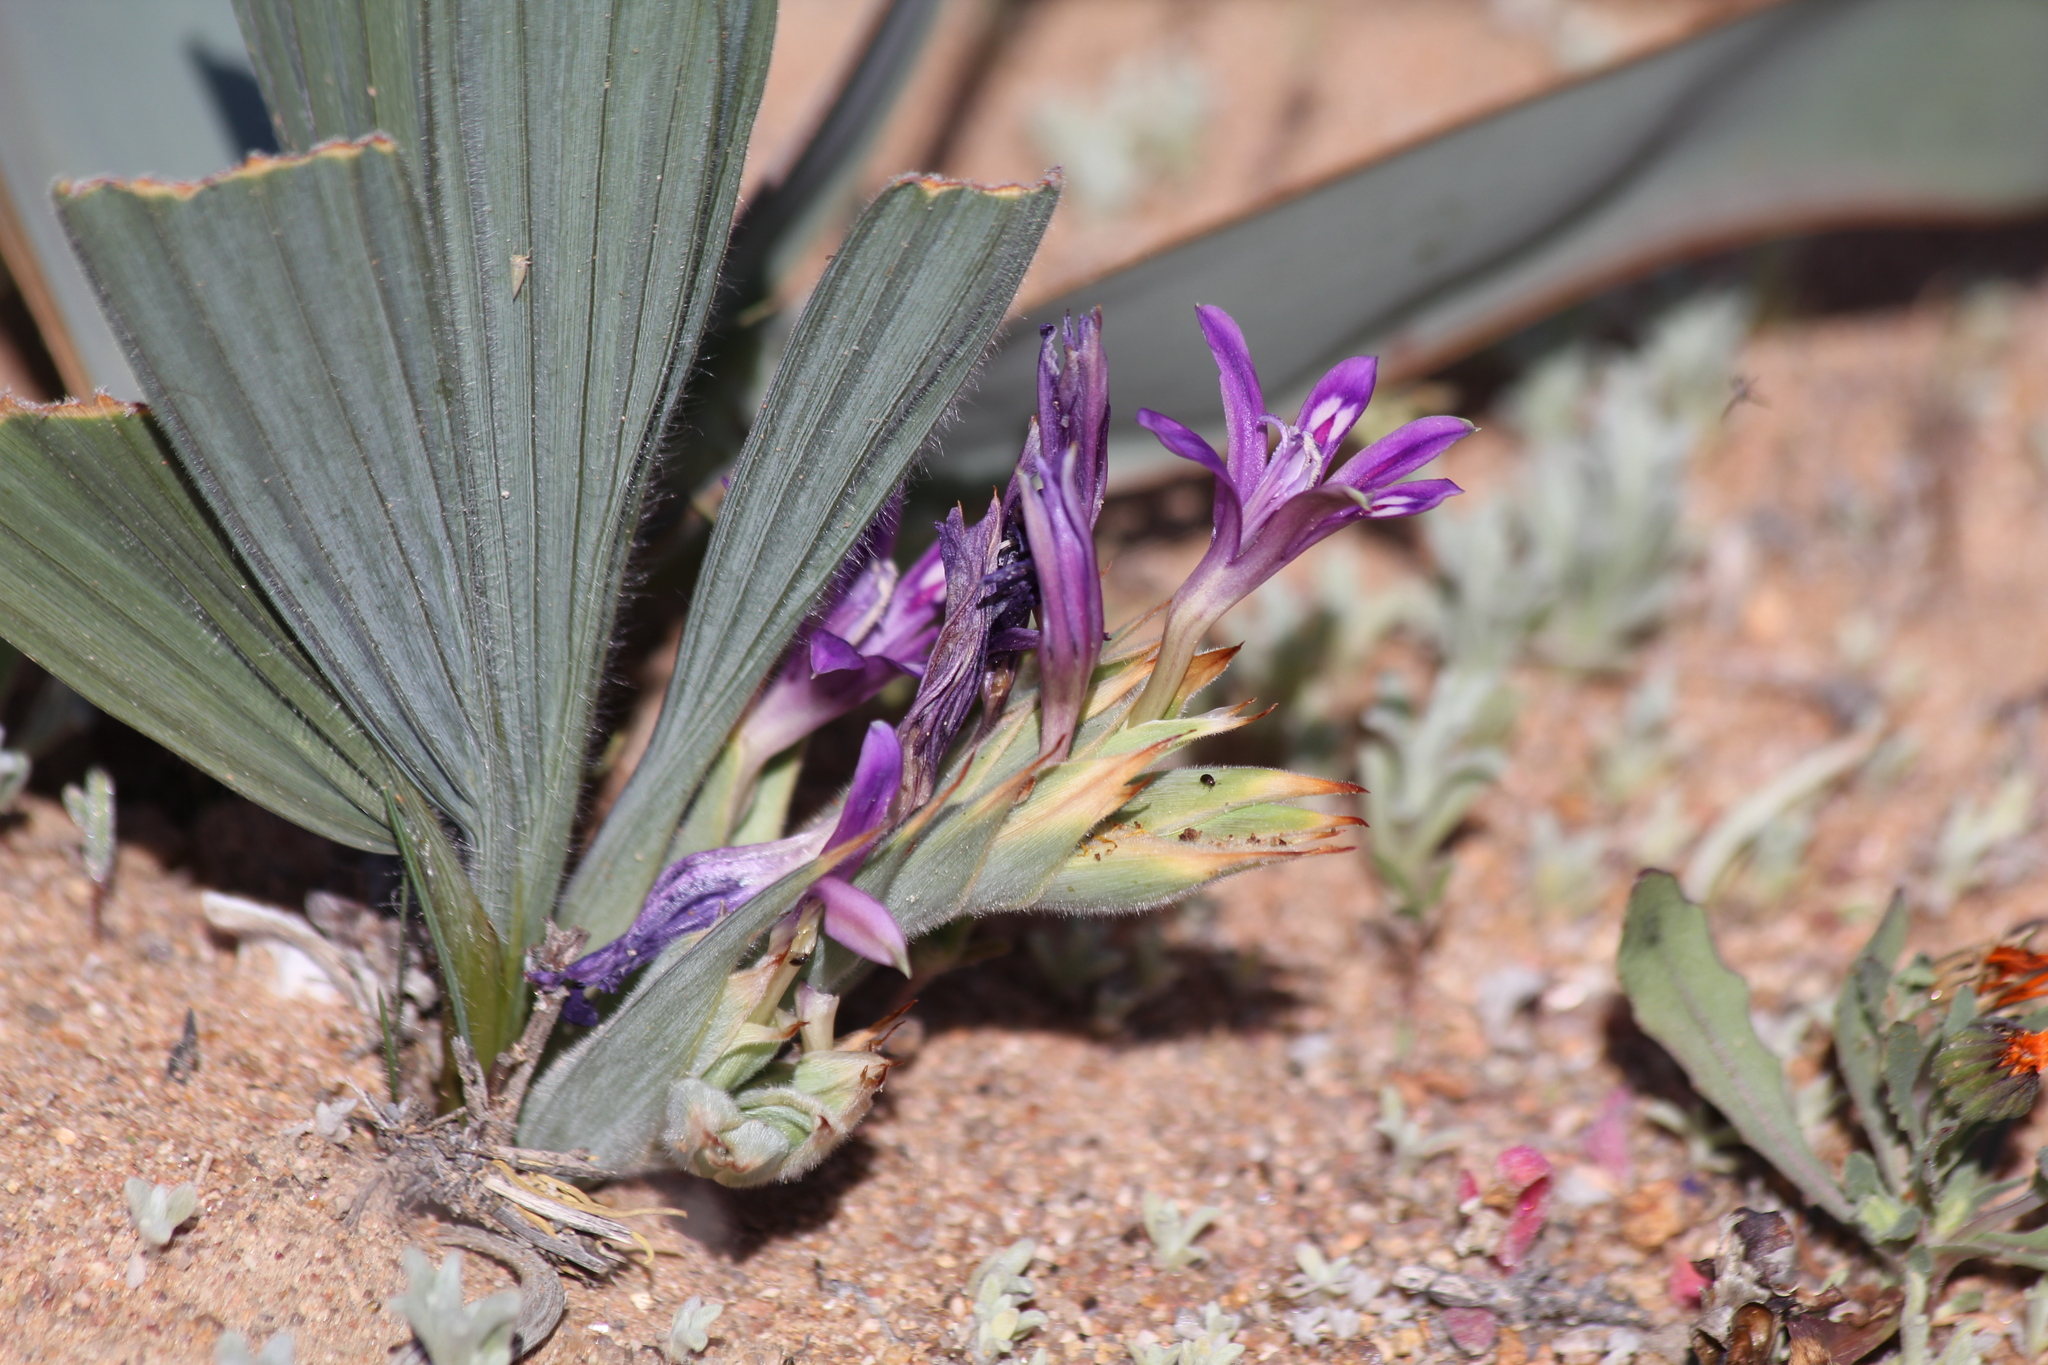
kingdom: Plantae
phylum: Tracheophyta
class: Liliopsida
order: Asparagales
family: Iridaceae
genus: Babiana
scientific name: Babiana dregei
